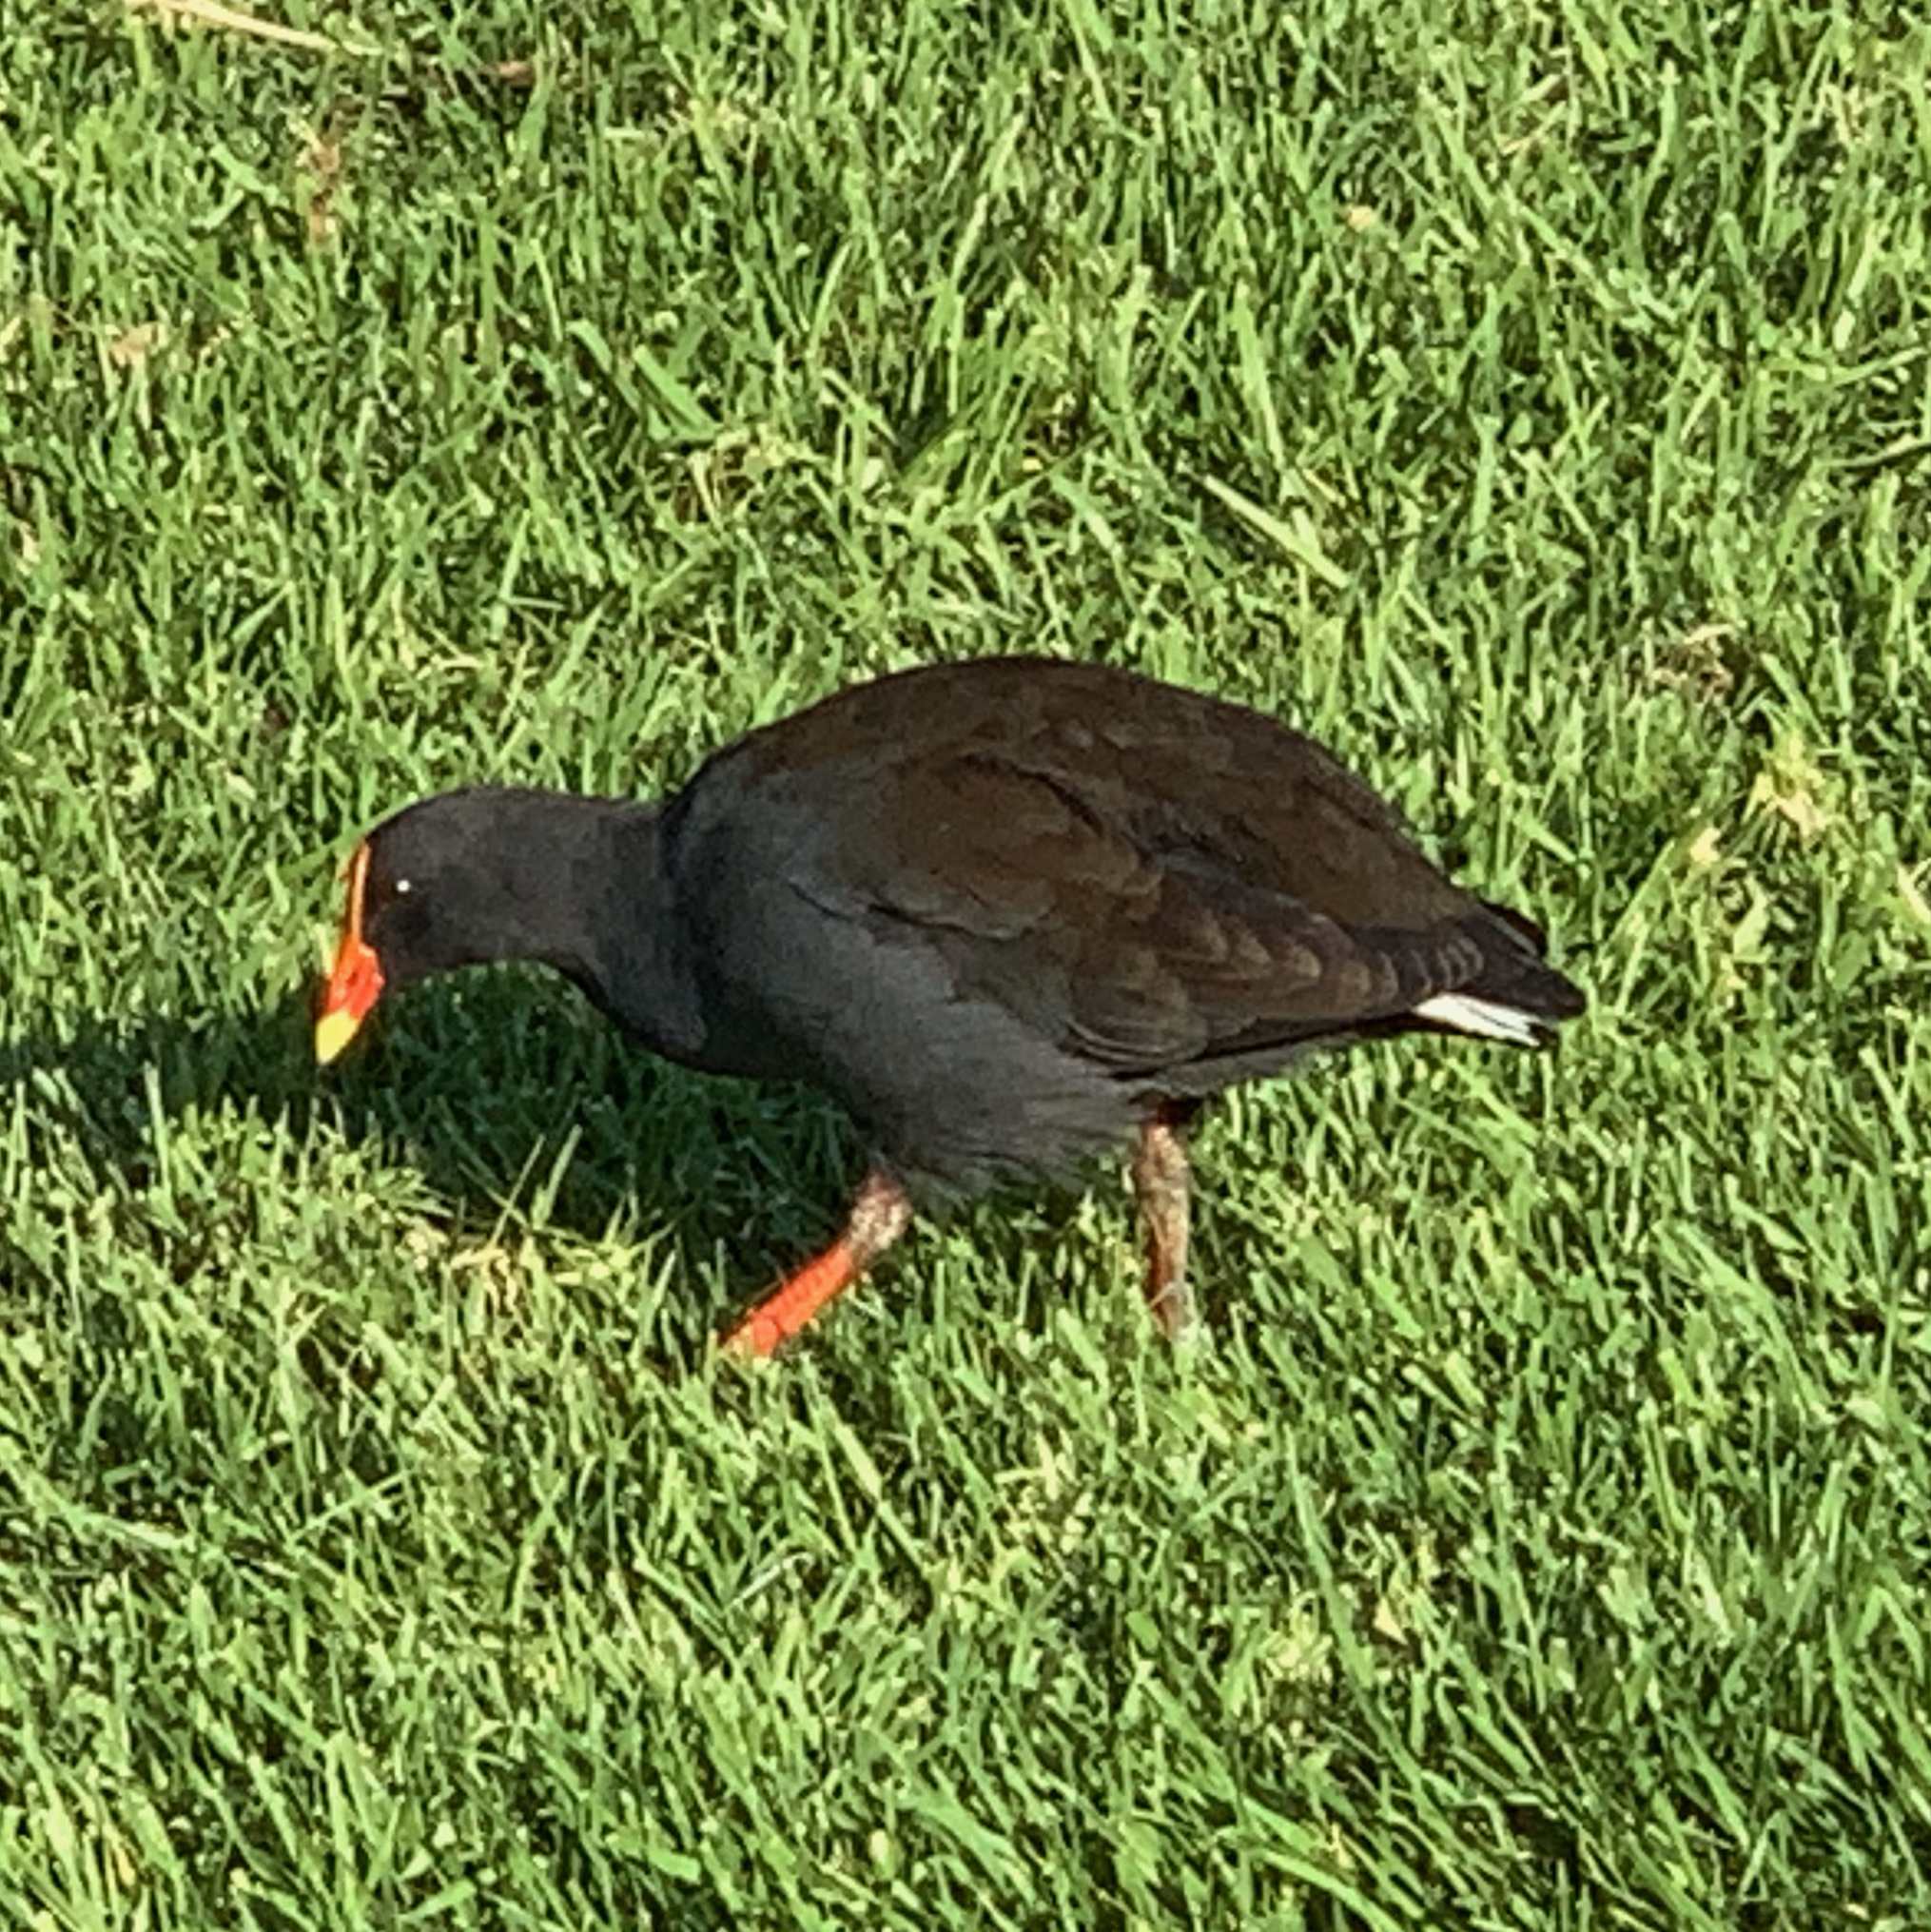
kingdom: Animalia
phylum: Chordata
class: Aves
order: Gruiformes
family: Rallidae
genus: Gallinula
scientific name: Gallinula tenebrosa
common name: Dusky moorhen
